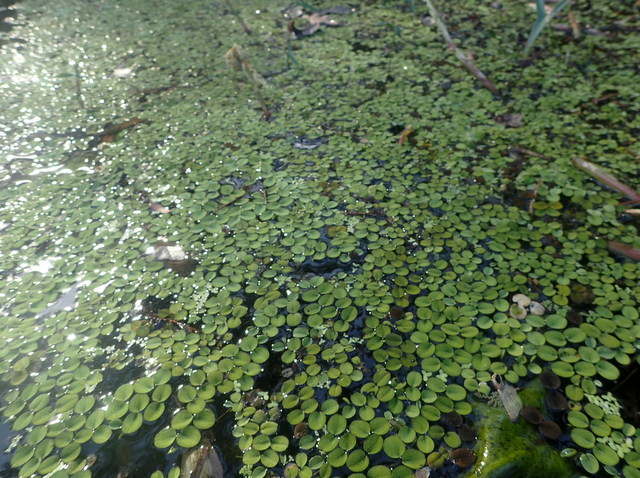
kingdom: Plantae
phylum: Tracheophyta
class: Polypodiopsida
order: Salviniales
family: Salviniaceae
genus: Salvinia
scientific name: Salvinia minima
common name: Water spangles
